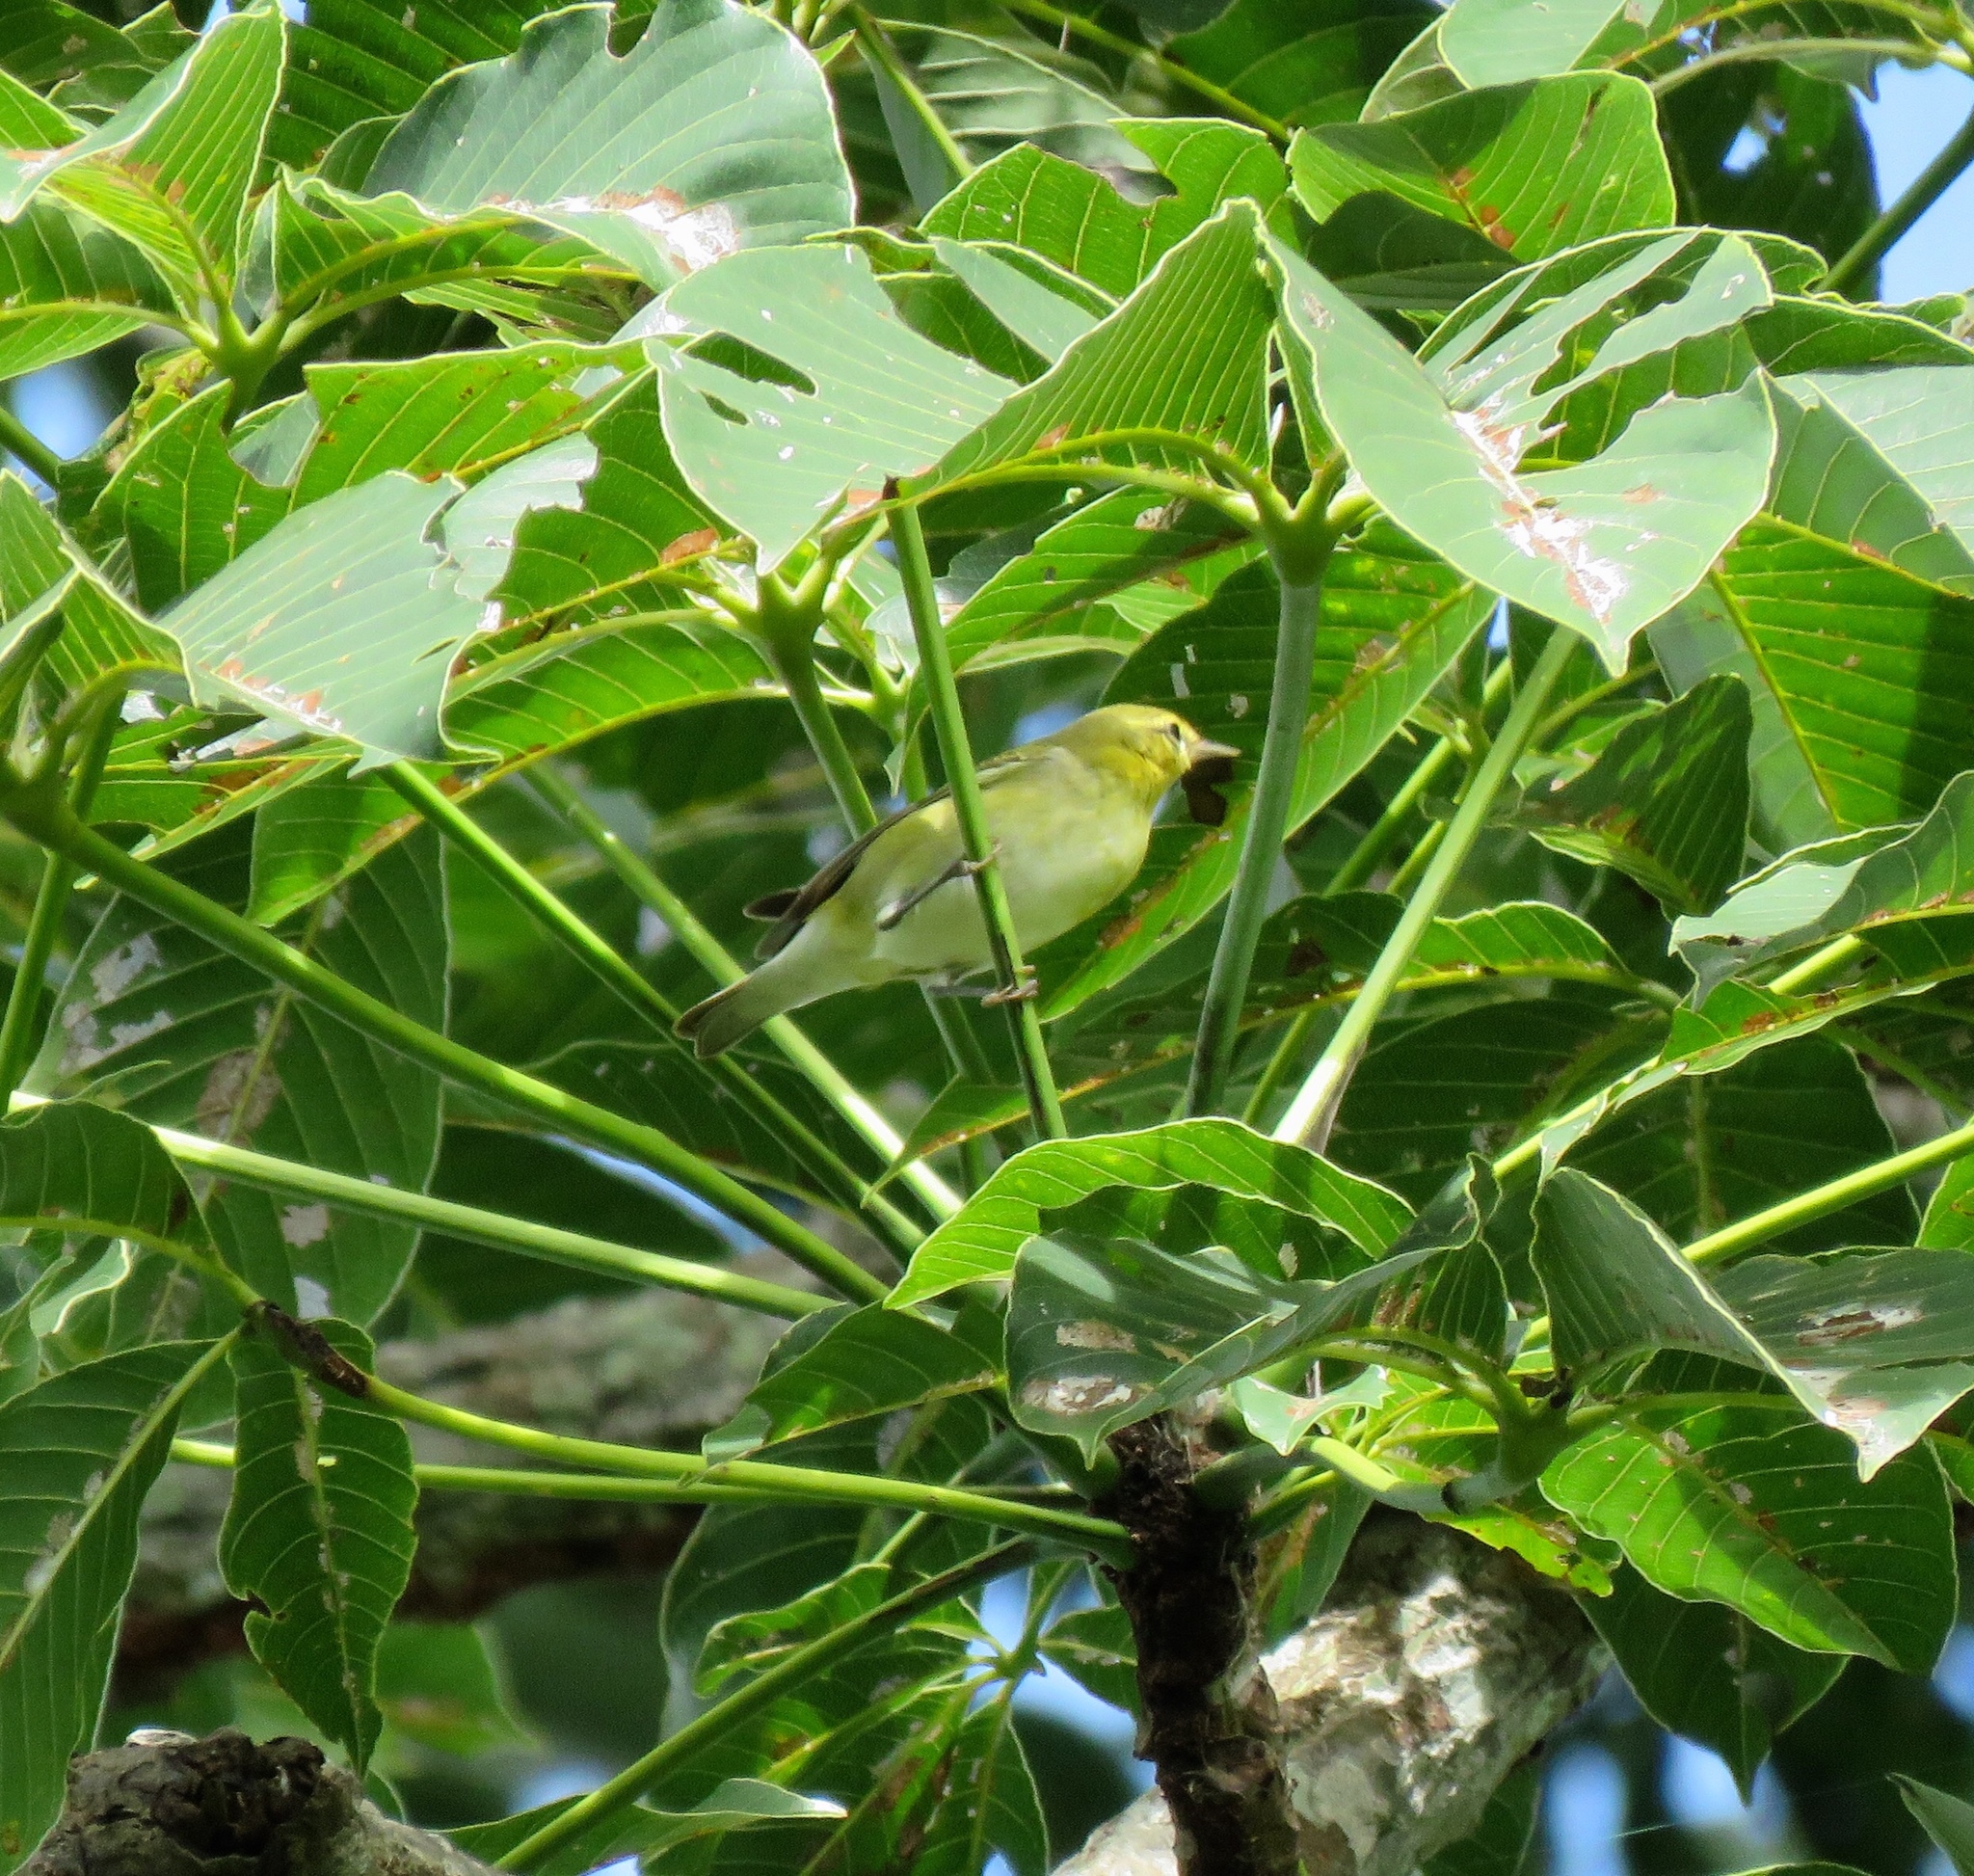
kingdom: Animalia
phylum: Chordata
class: Aves
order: Passeriformes
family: Parulidae
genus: Leiothlypis
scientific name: Leiothlypis peregrina
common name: Tennessee warbler
